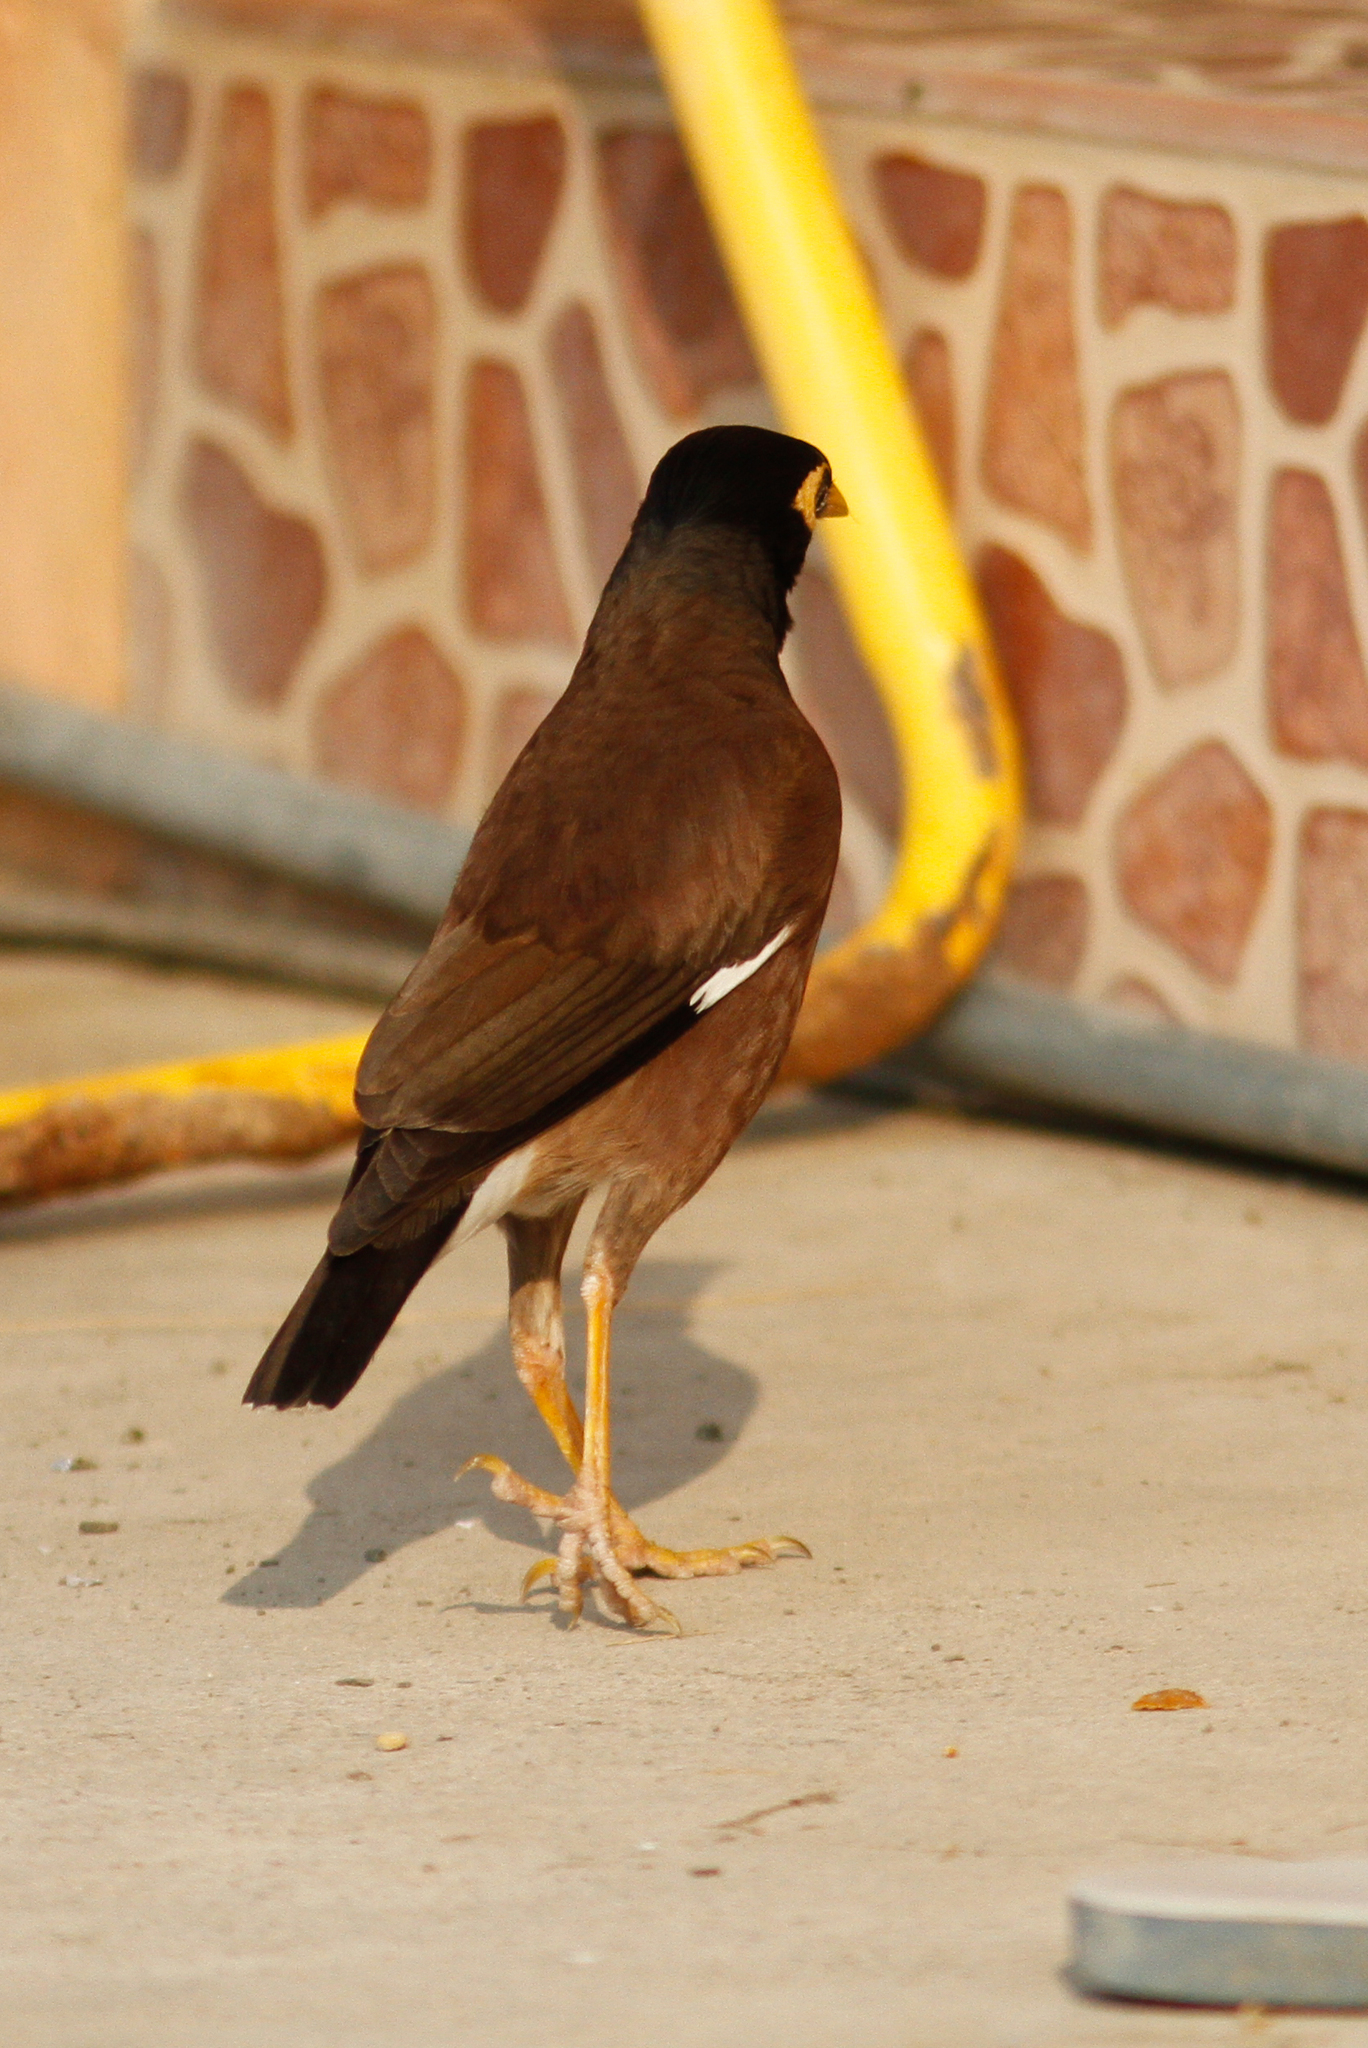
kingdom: Animalia
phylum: Chordata
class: Aves
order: Passeriformes
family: Sturnidae
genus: Acridotheres
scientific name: Acridotheres tristis
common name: Common myna
